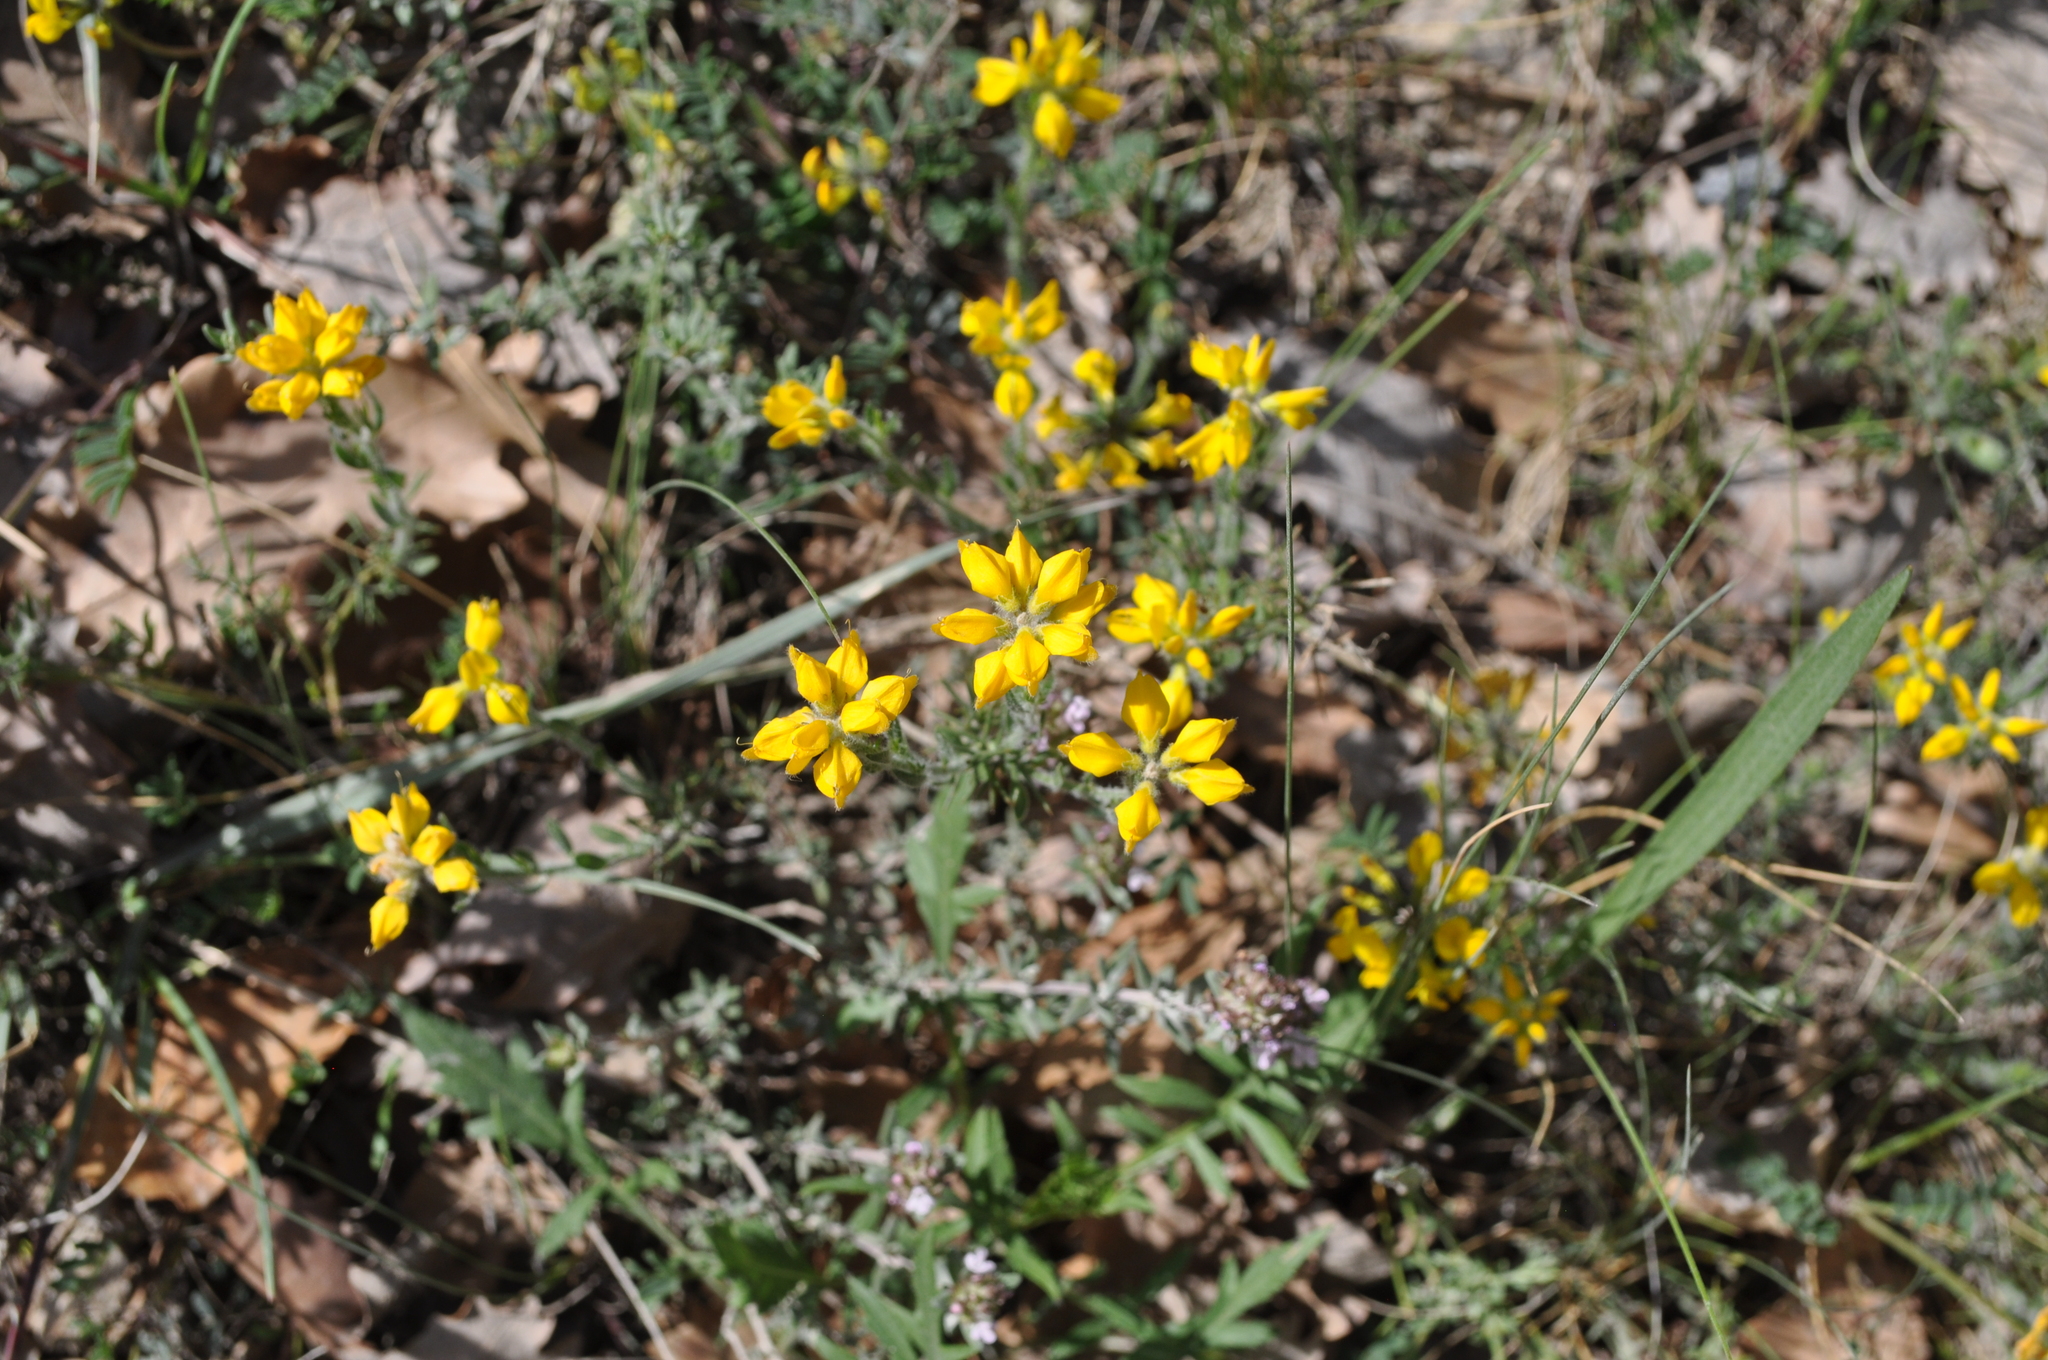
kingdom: Plantae
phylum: Tracheophyta
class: Magnoliopsida
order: Fabales
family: Fabaceae
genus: Genista
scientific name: Genista hispanica
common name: Spanish gorse
